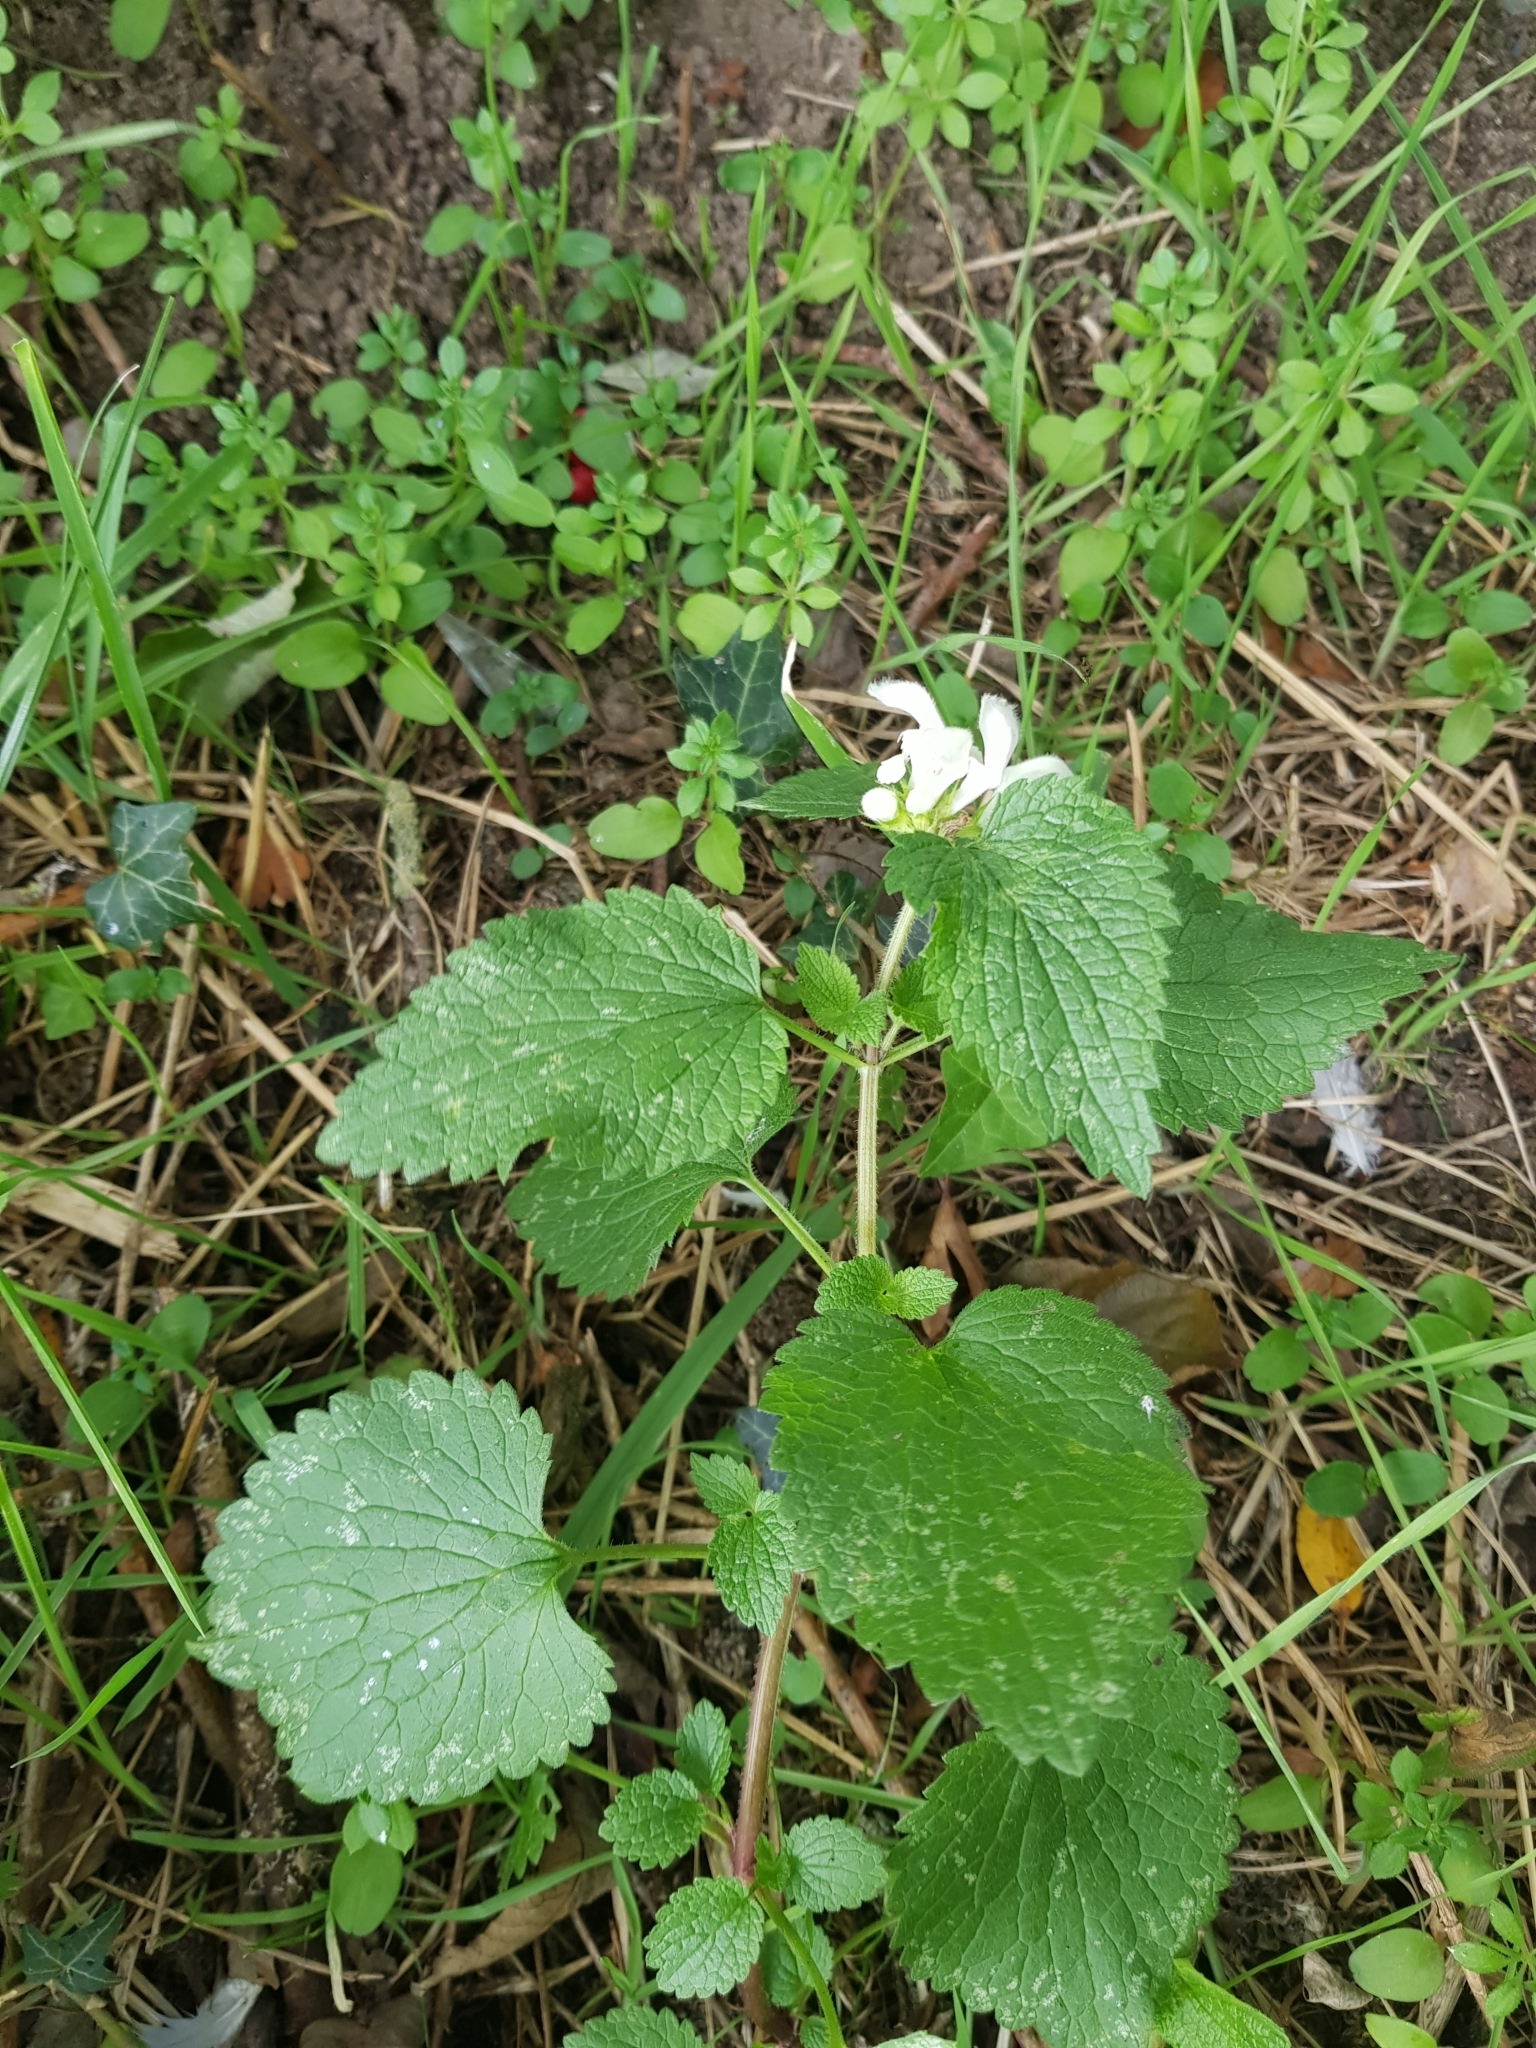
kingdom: Plantae
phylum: Tracheophyta
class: Magnoliopsida
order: Lamiales
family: Lamiaceae
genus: Lamium
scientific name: Lamium album
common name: White dead-nettle
